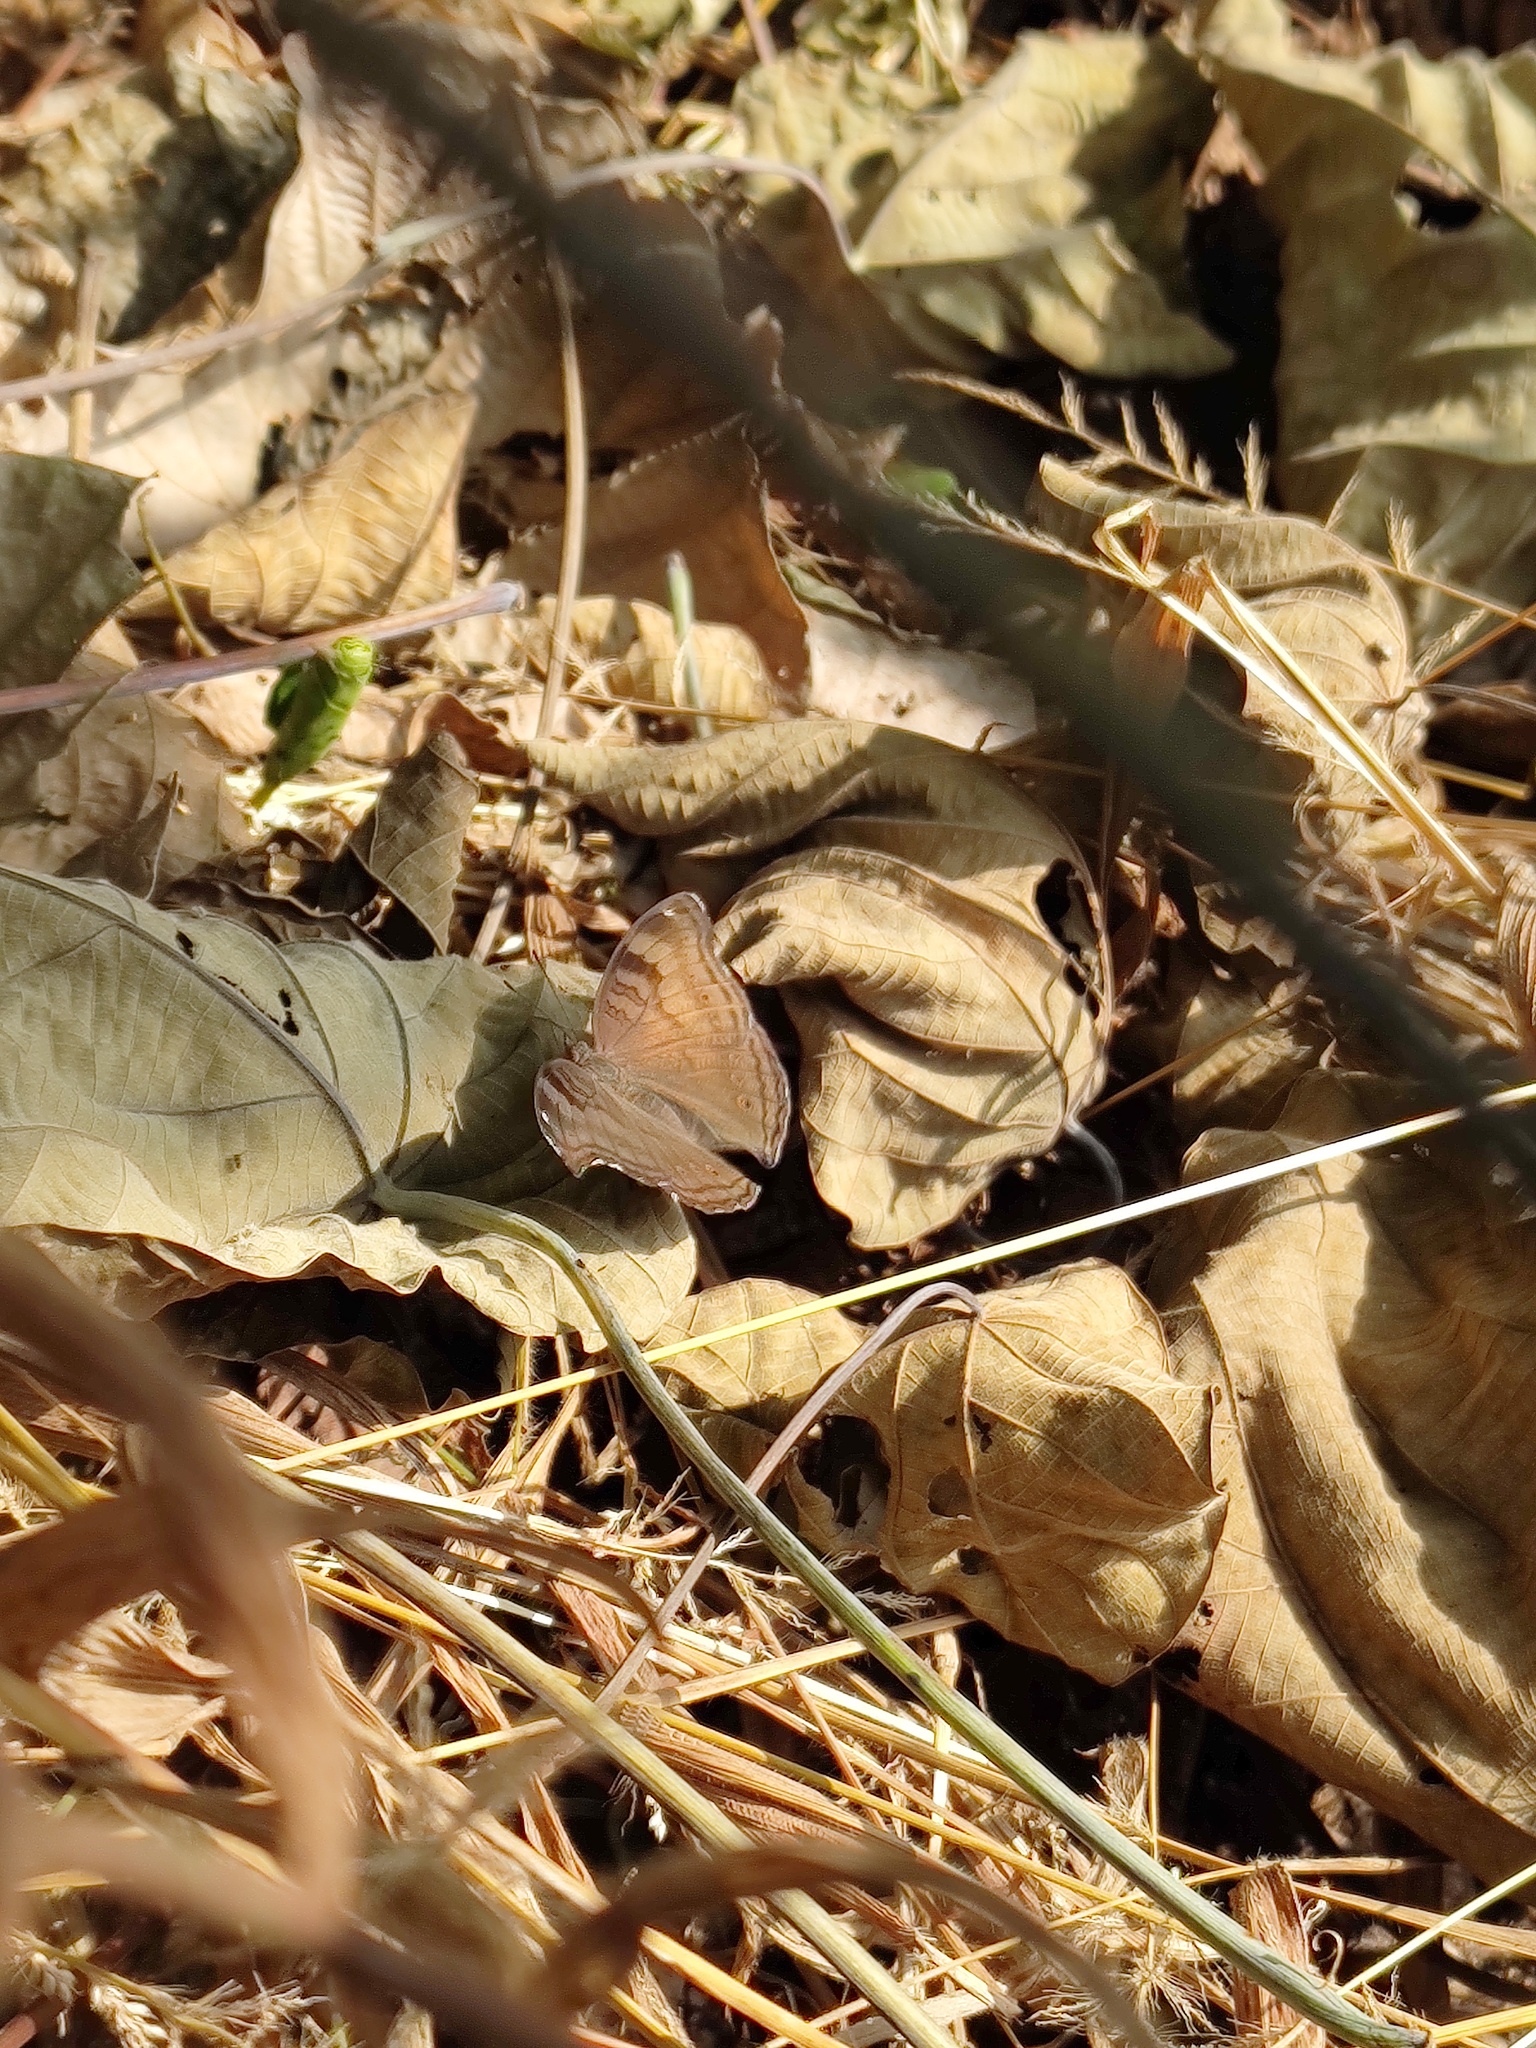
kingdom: Animalia
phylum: Arthropoda
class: Insecta
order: Lepidoptera
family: Nymphalidae
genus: Junonia
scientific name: Junonia iphita
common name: Chocolate pansy
